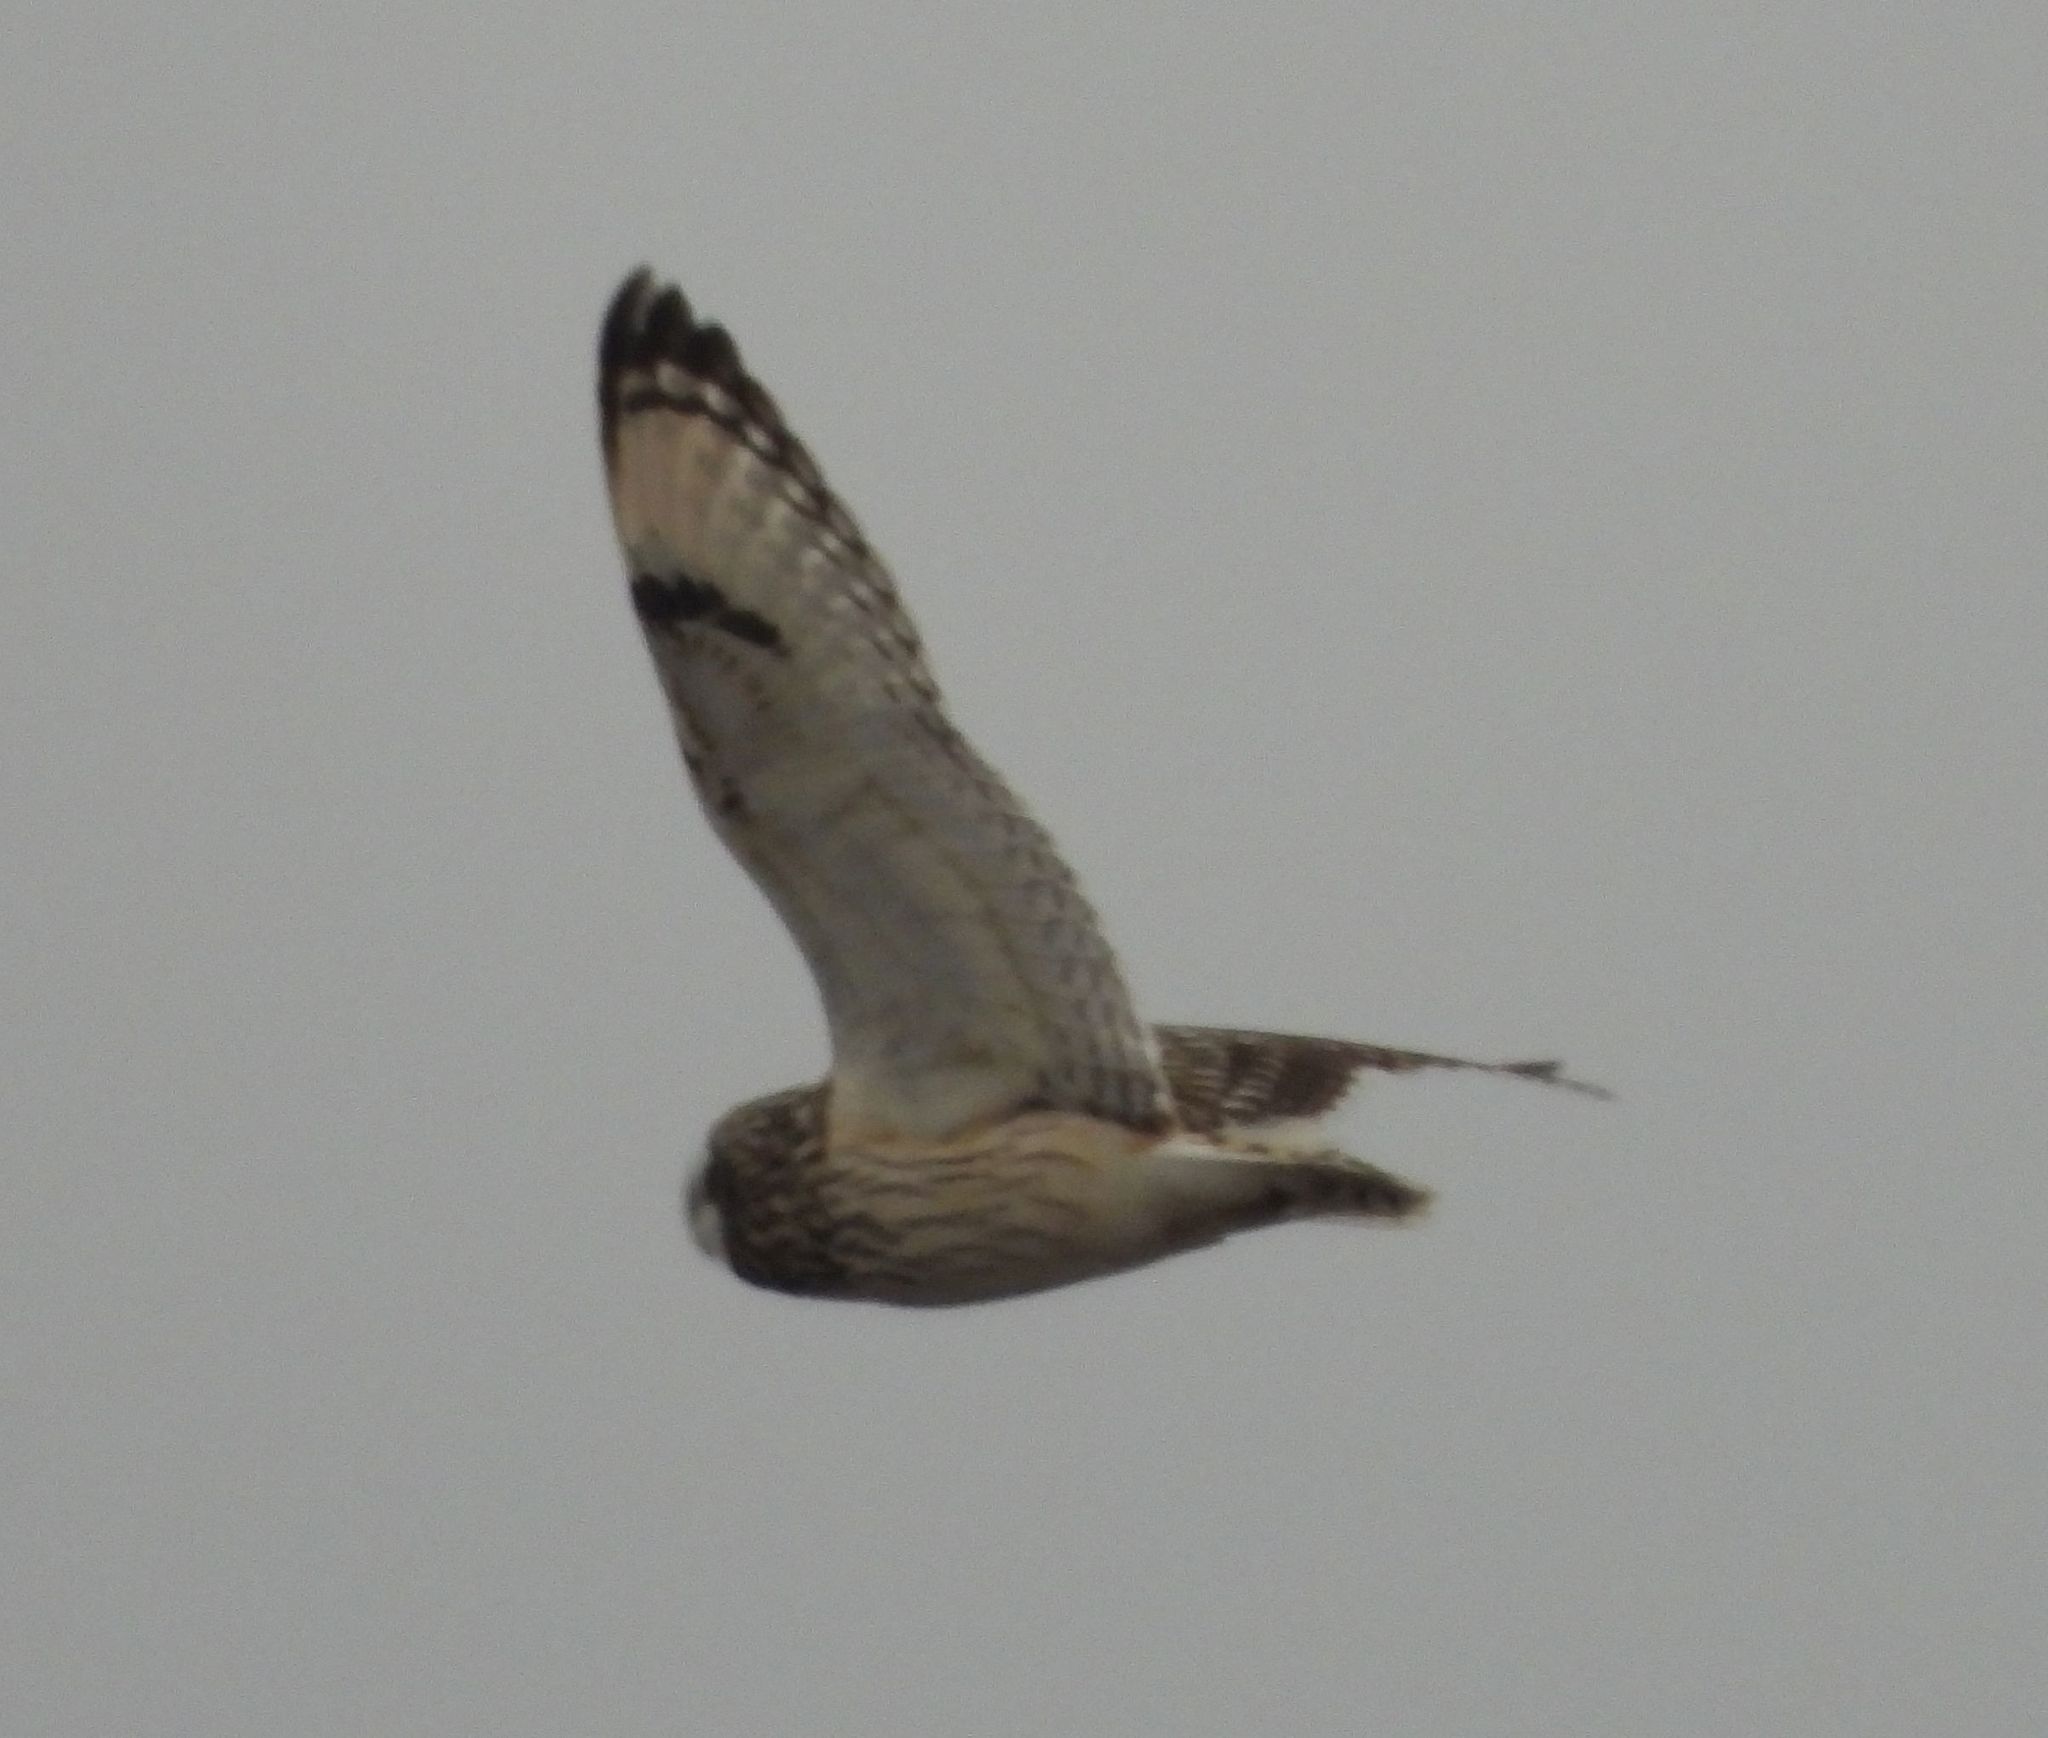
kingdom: Animalia
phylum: Chordata
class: Aves
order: Strigiformes
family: Strigidae
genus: Asio
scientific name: Asio flammeus
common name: Short-eared owl
